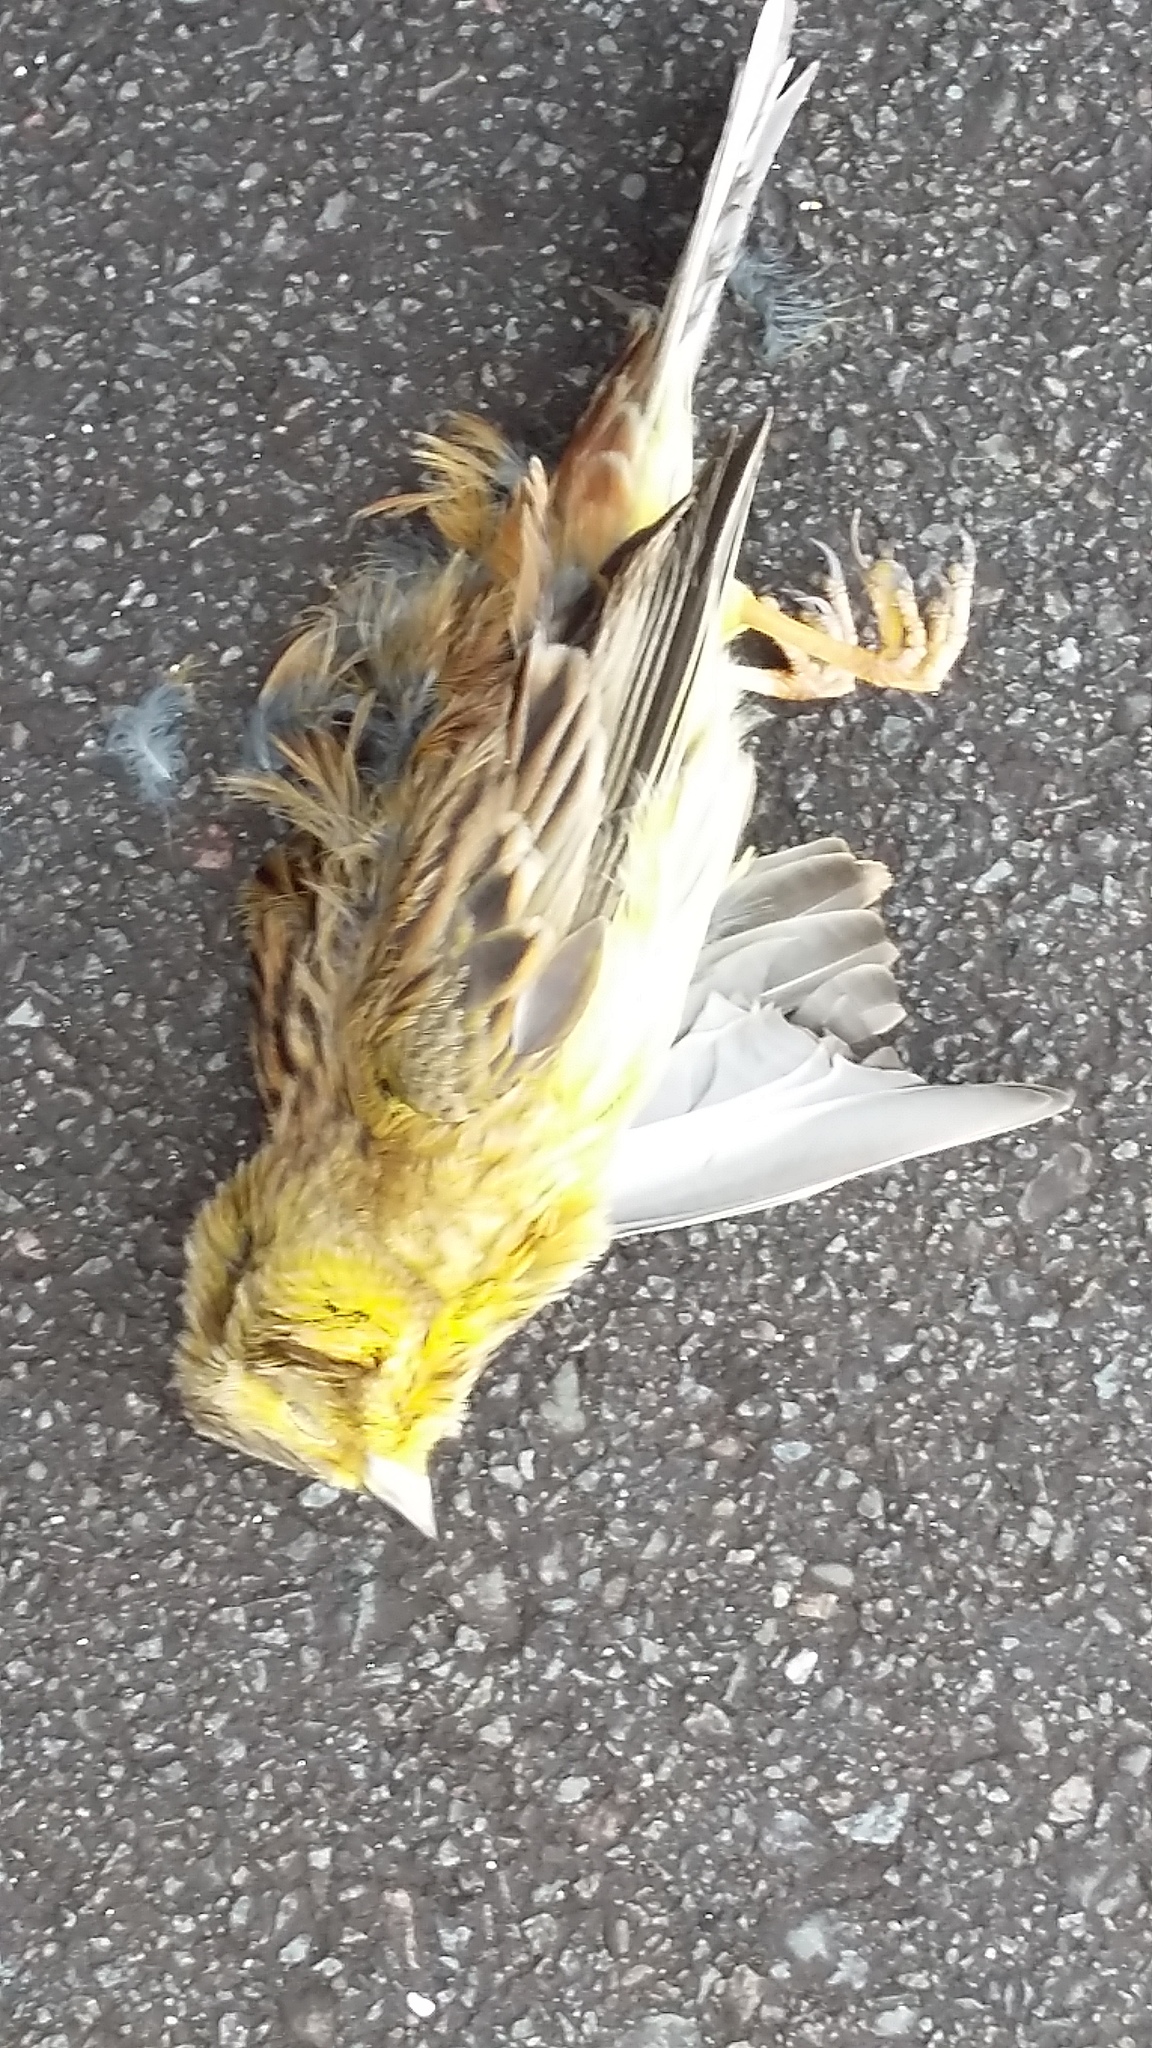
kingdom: Animalia
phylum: Chordata
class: Aves
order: Passeriformes
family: Emberizidae
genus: Emberiza
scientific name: Emberiza citrinella
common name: Yellowhammer
